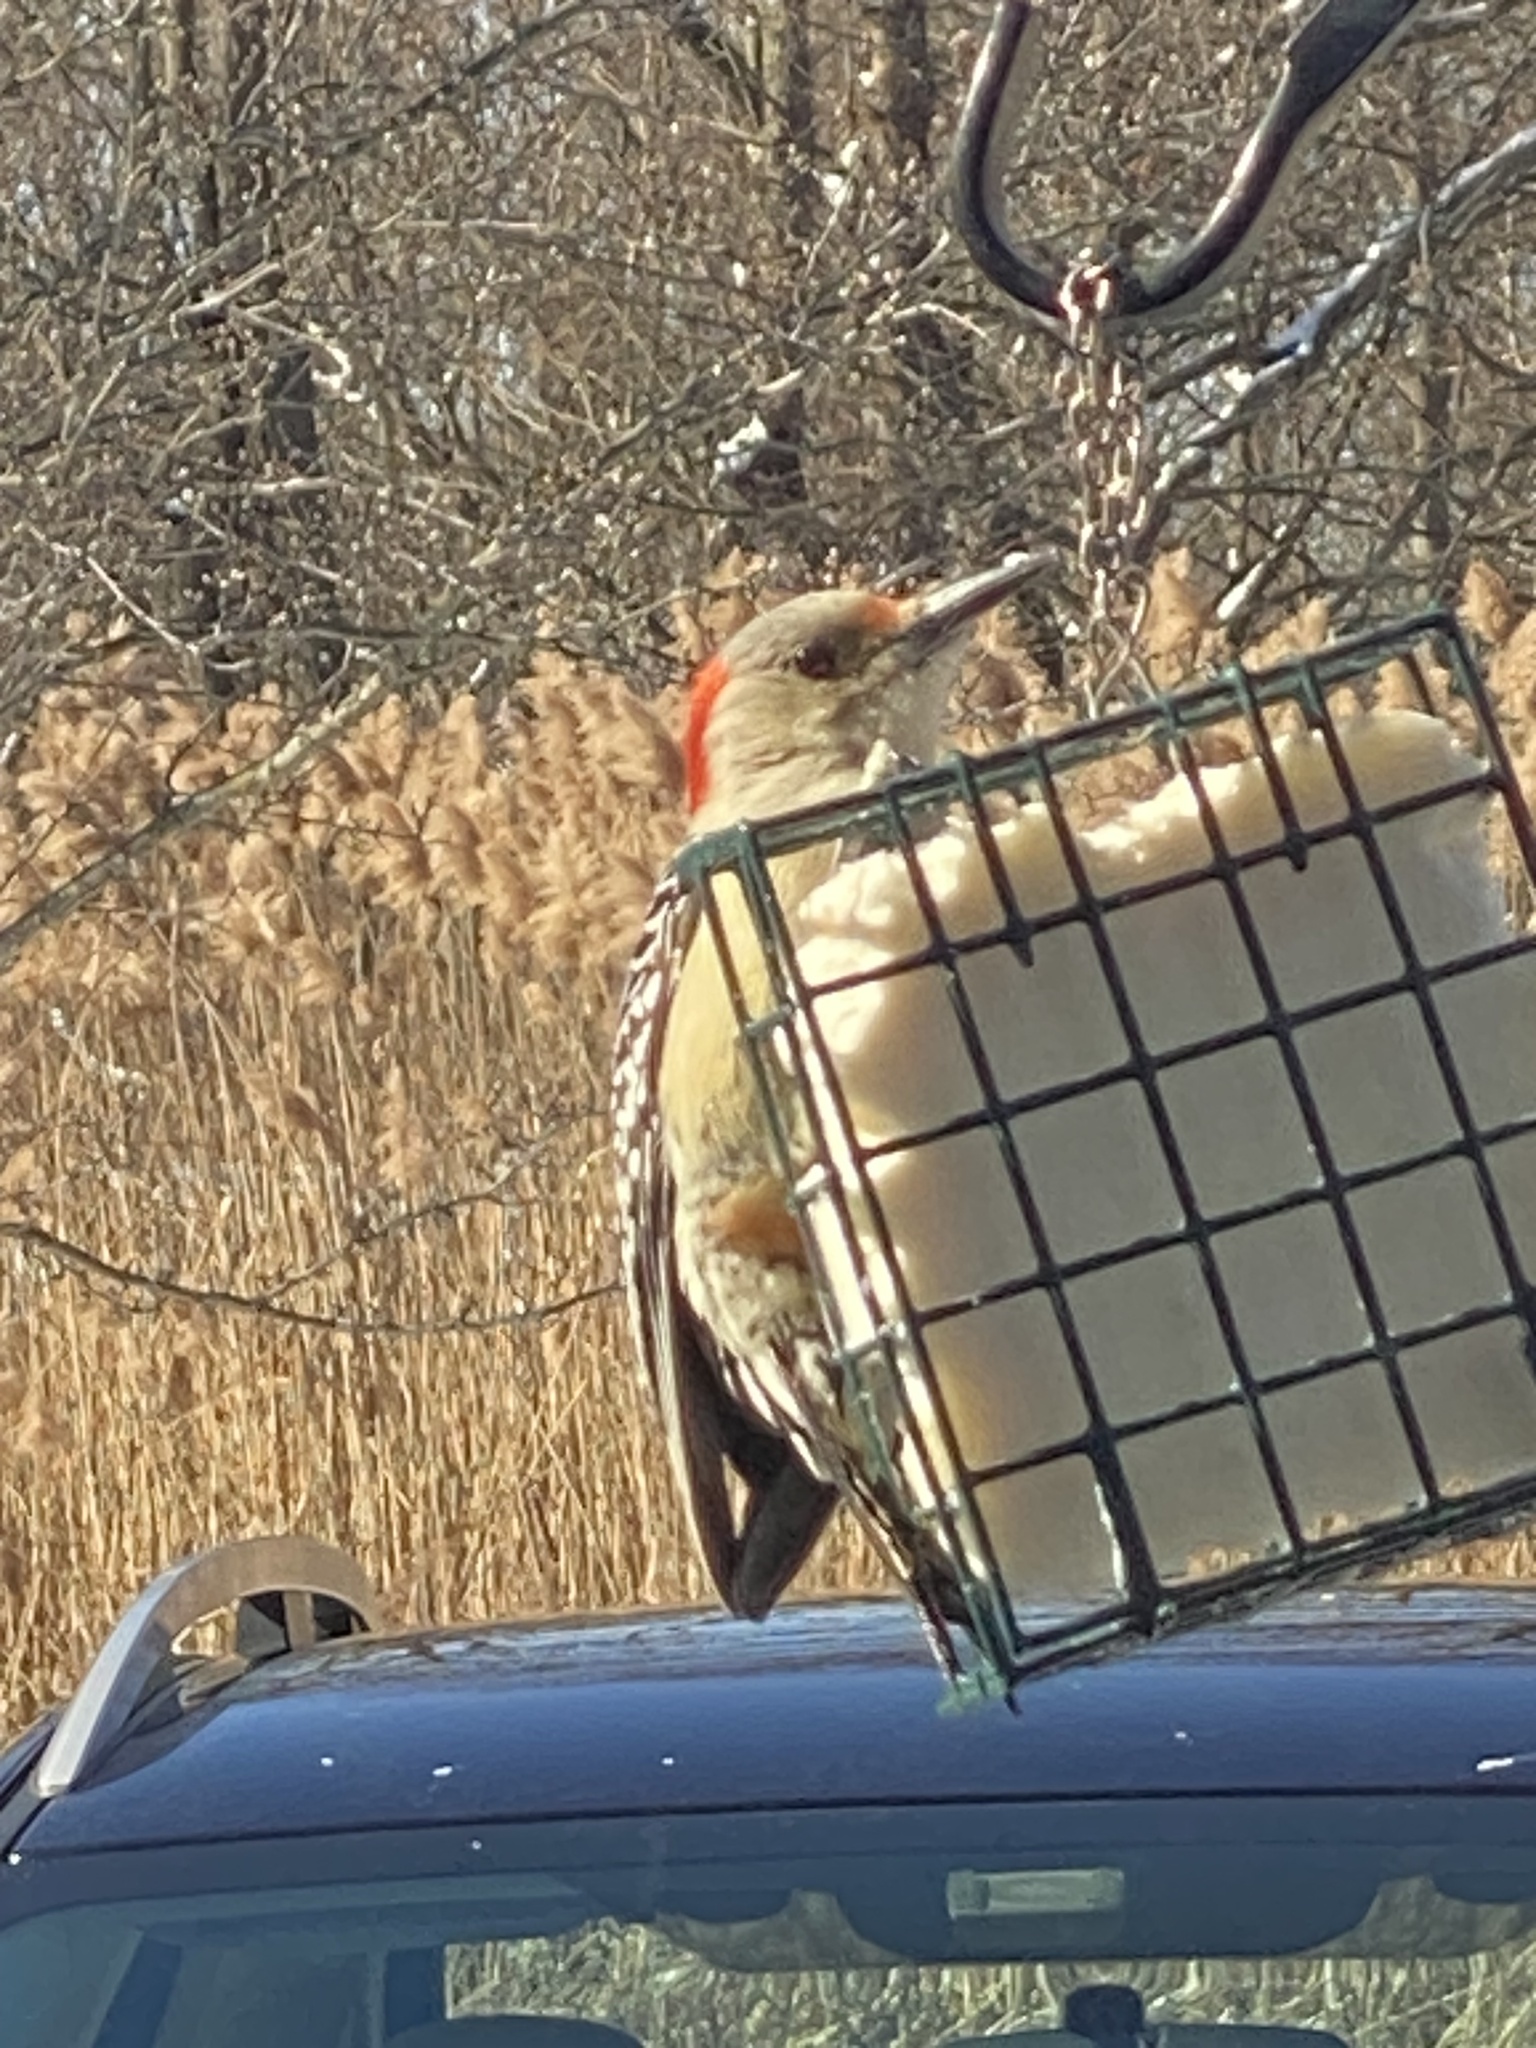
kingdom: Animalia
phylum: Chordata
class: Aves
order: Piciformes
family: Picidae
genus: Melanerpes
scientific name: Melanerpes carolinus
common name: Red-bellied woodpecker
